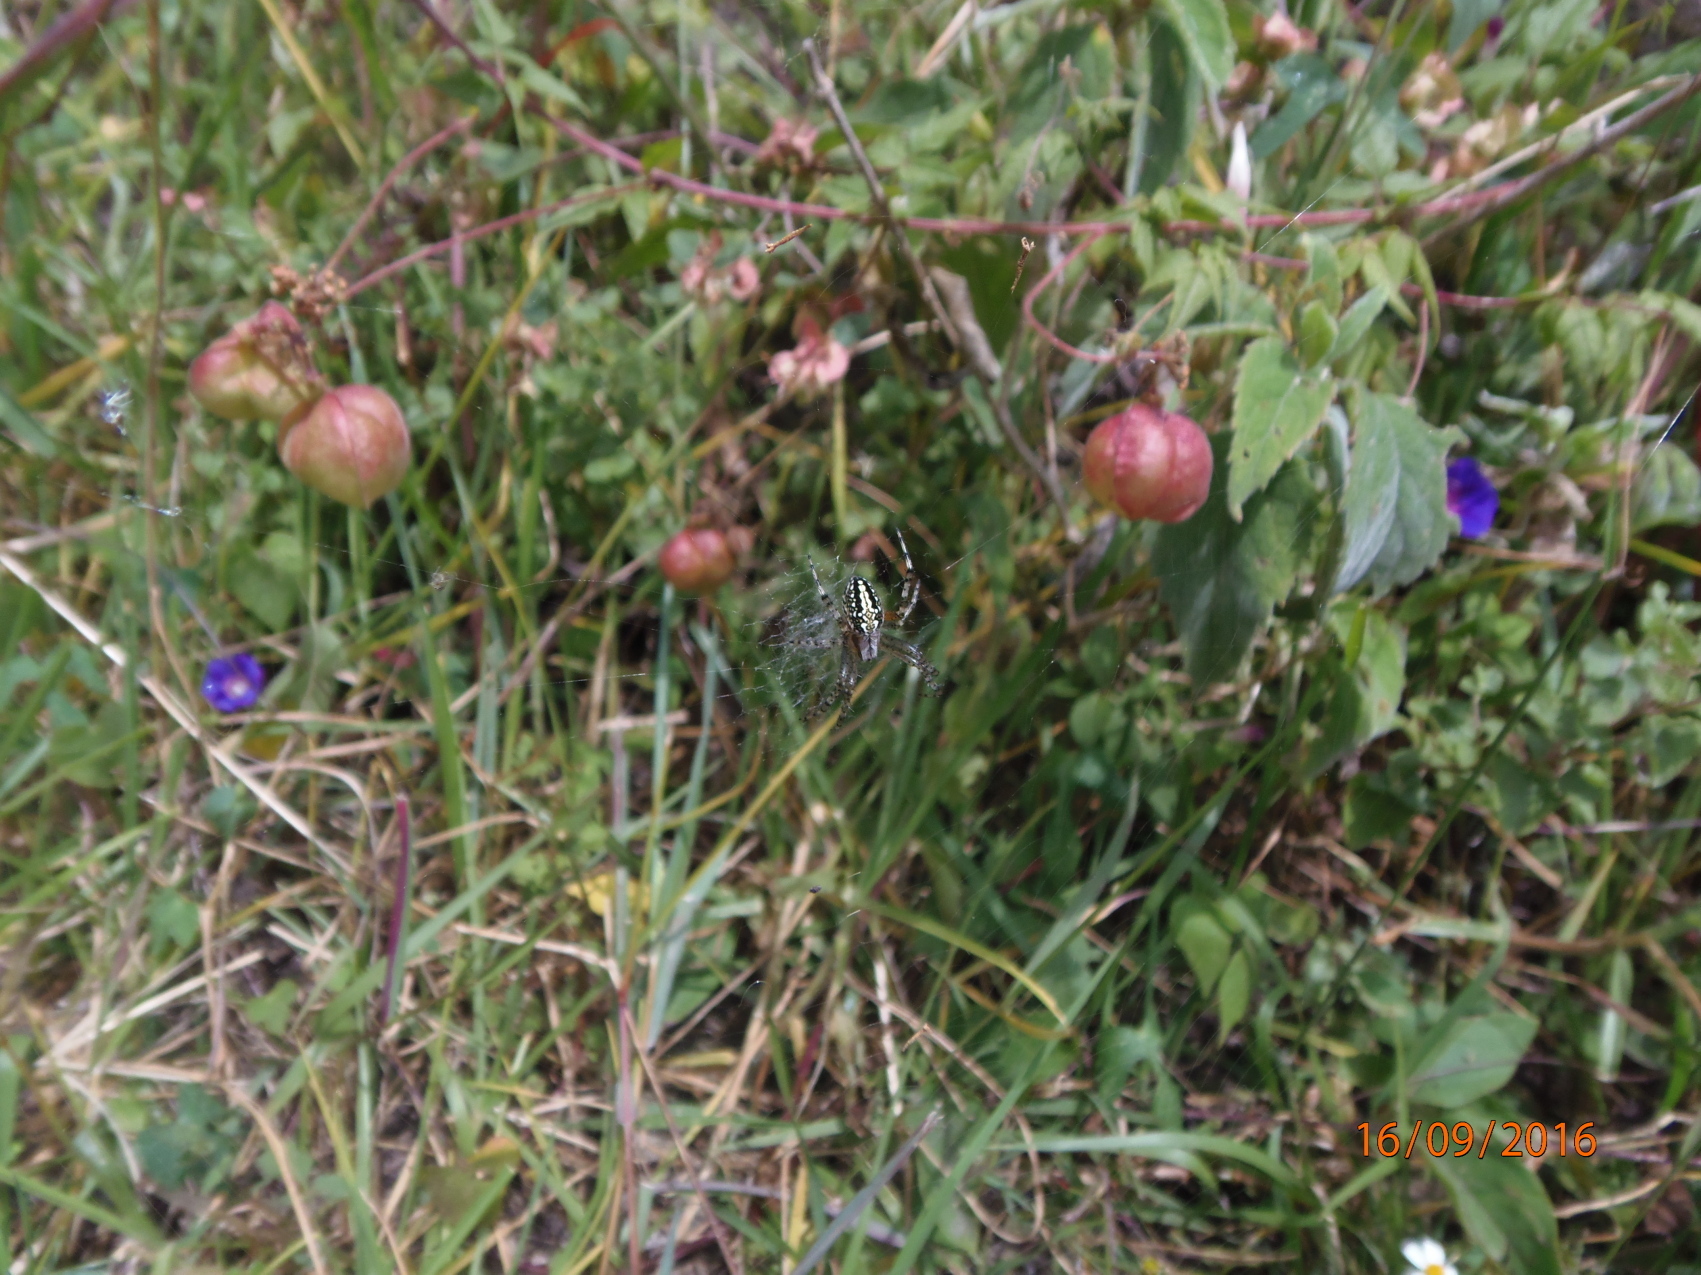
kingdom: Animalia
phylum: Arthropoda
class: Arachnida
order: Araneae
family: Araneidae
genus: Neoscona
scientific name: Neoscona oaxacensis
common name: Orb weavers
